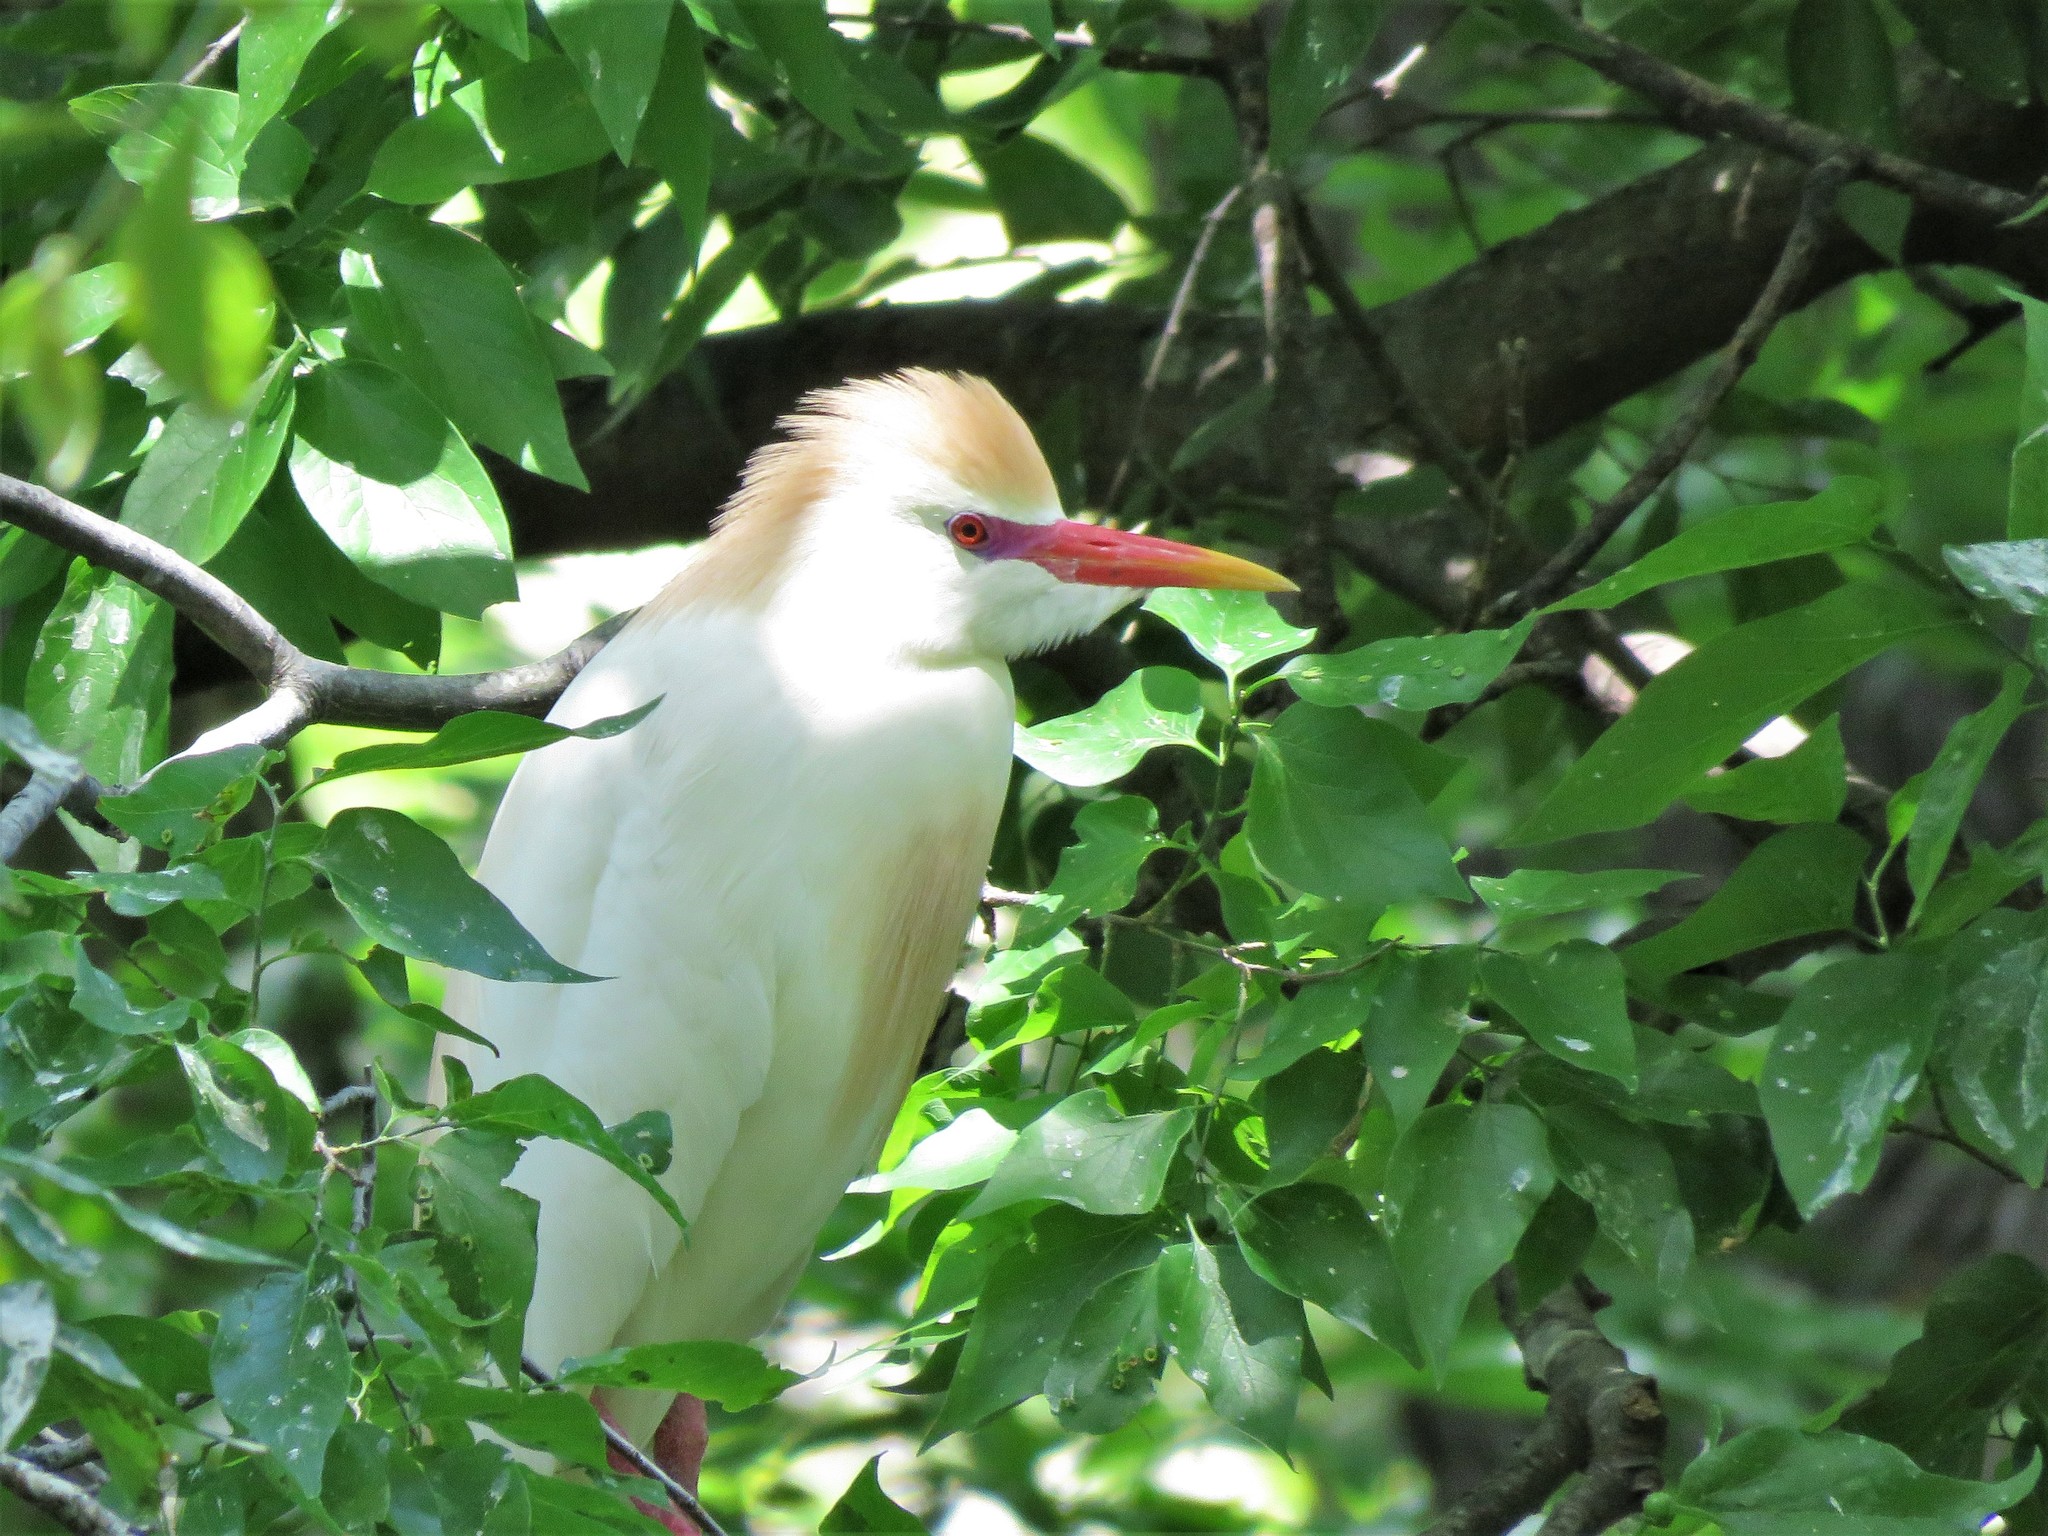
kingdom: Animalia
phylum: Chordata
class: Aves
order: Pelecaniformes
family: Ardeidae
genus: Bubulcus
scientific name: Bubulcus ibis
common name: Cattle egret
